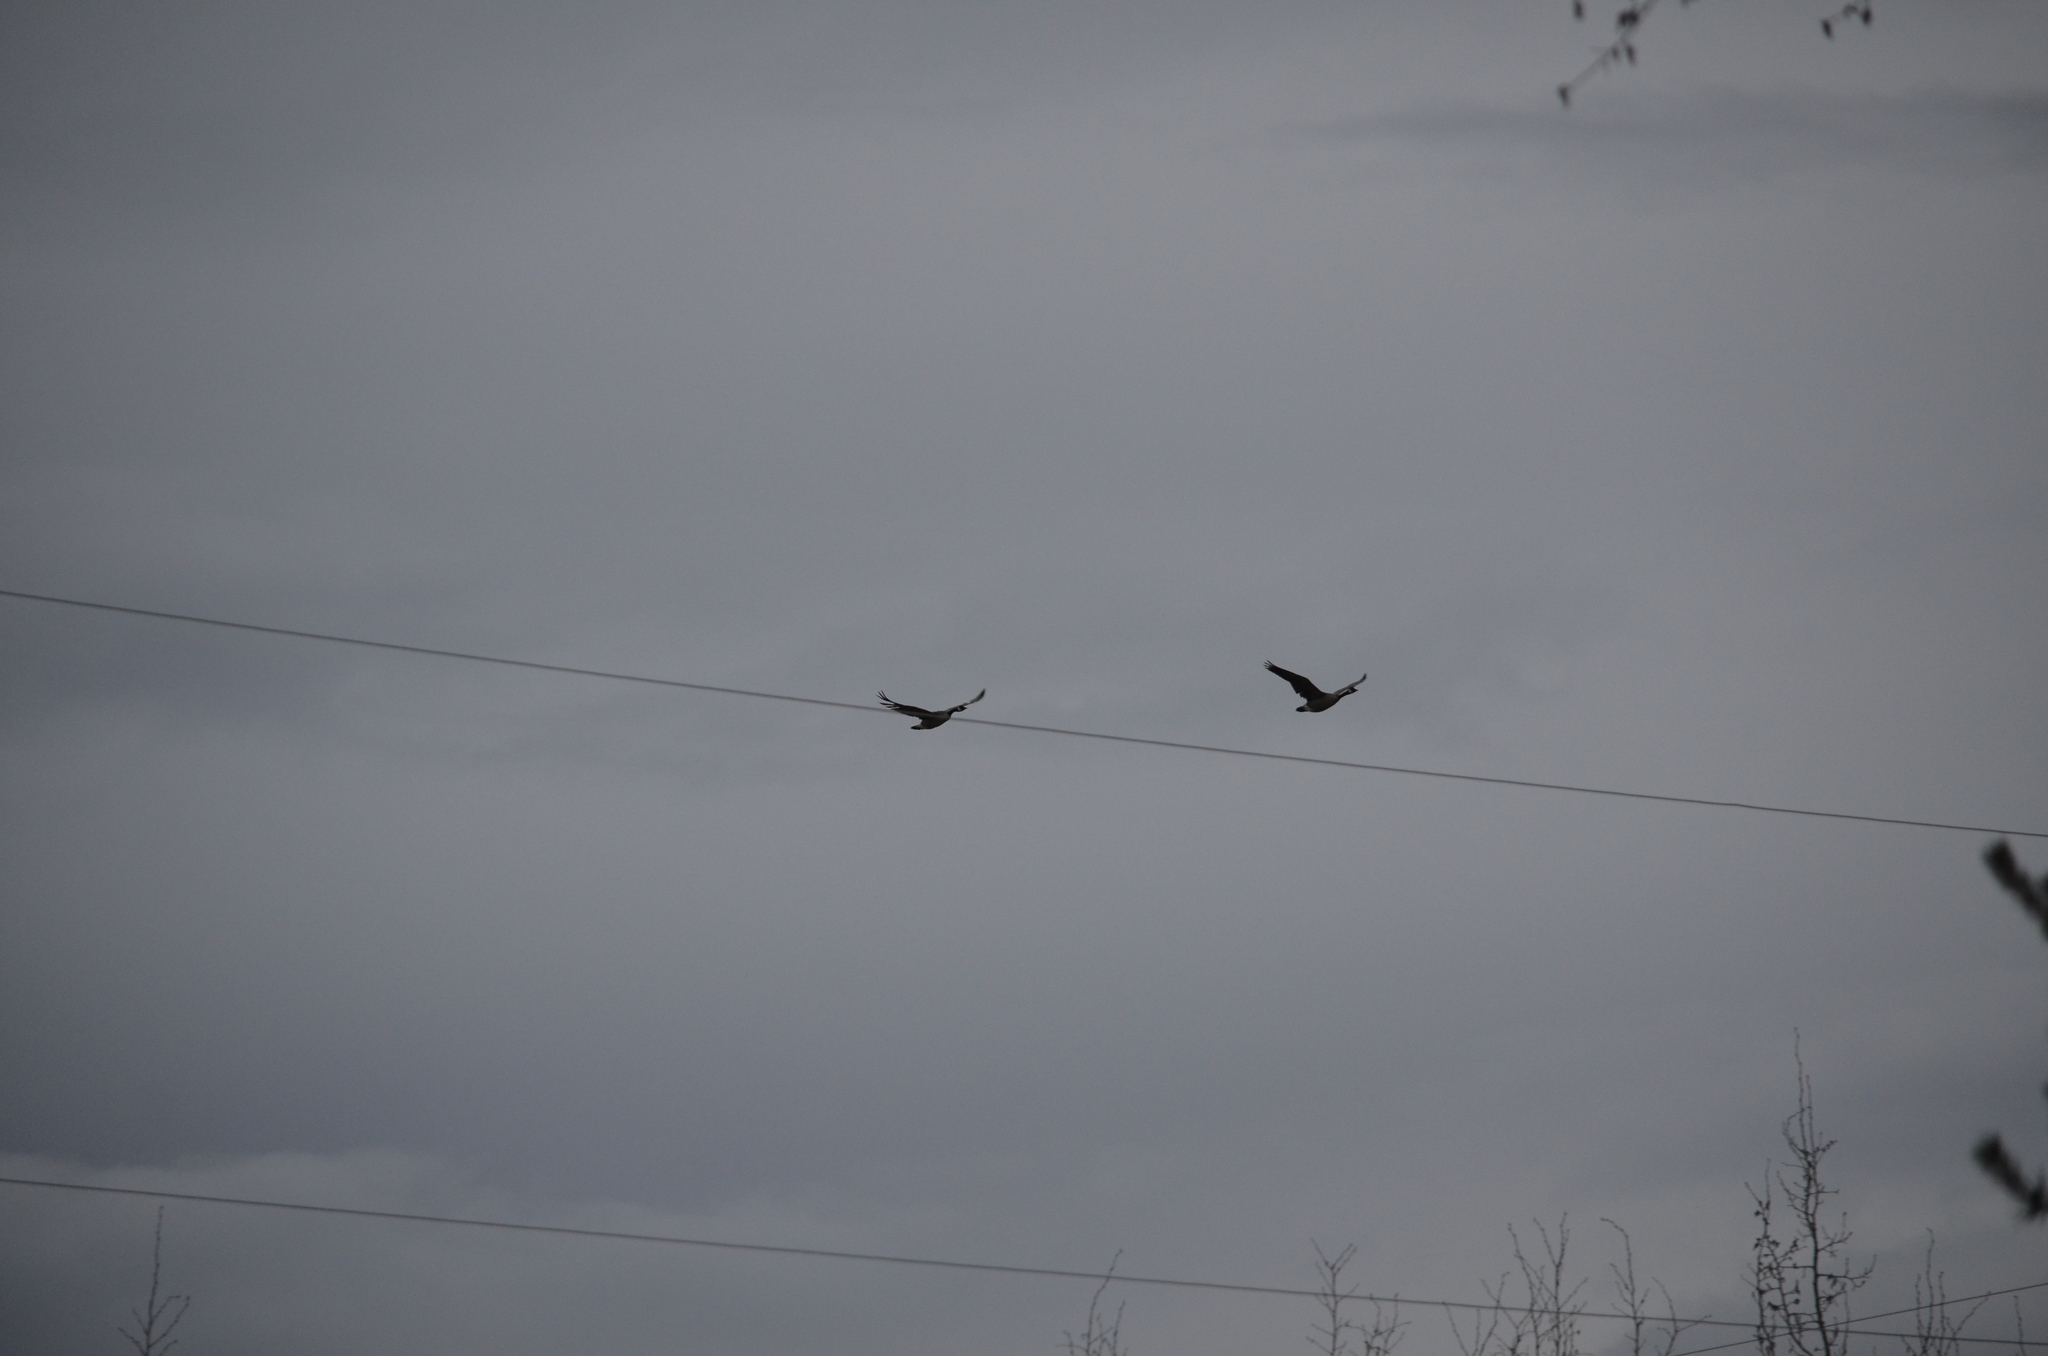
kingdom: Animalia
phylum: Chordata
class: Aves
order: Anseriformes
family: Anatidae
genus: Branta
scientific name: Branta canadensis
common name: Canada goose
